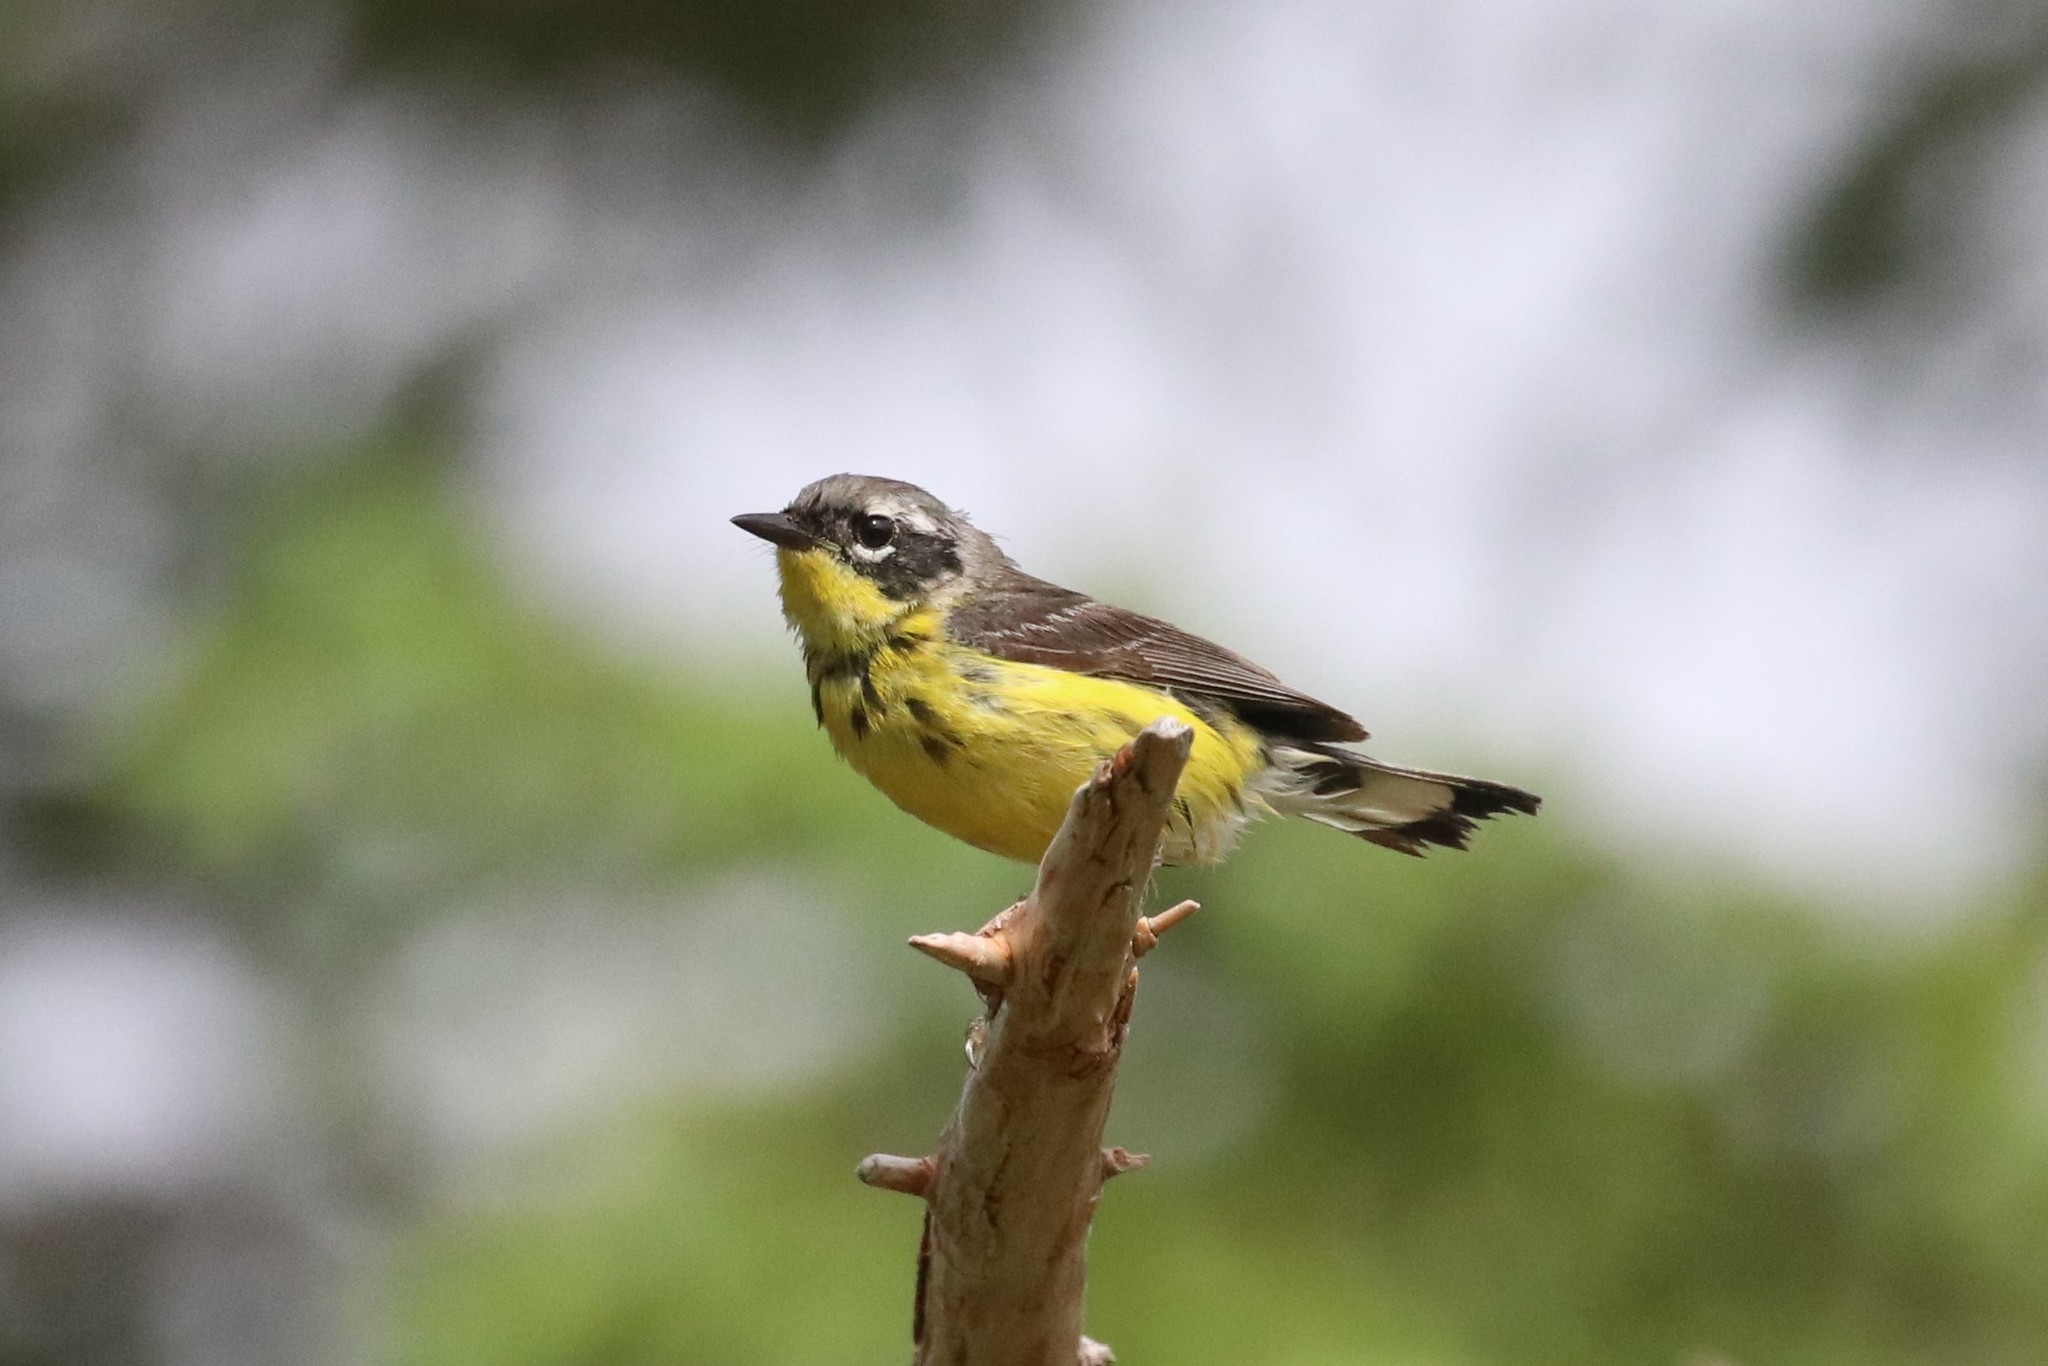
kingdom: Animalia
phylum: Chordata
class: Aves
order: Passeriformes
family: Parulidae
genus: Setophaga
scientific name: Setophaga magnolia
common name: Magnolia warbler
